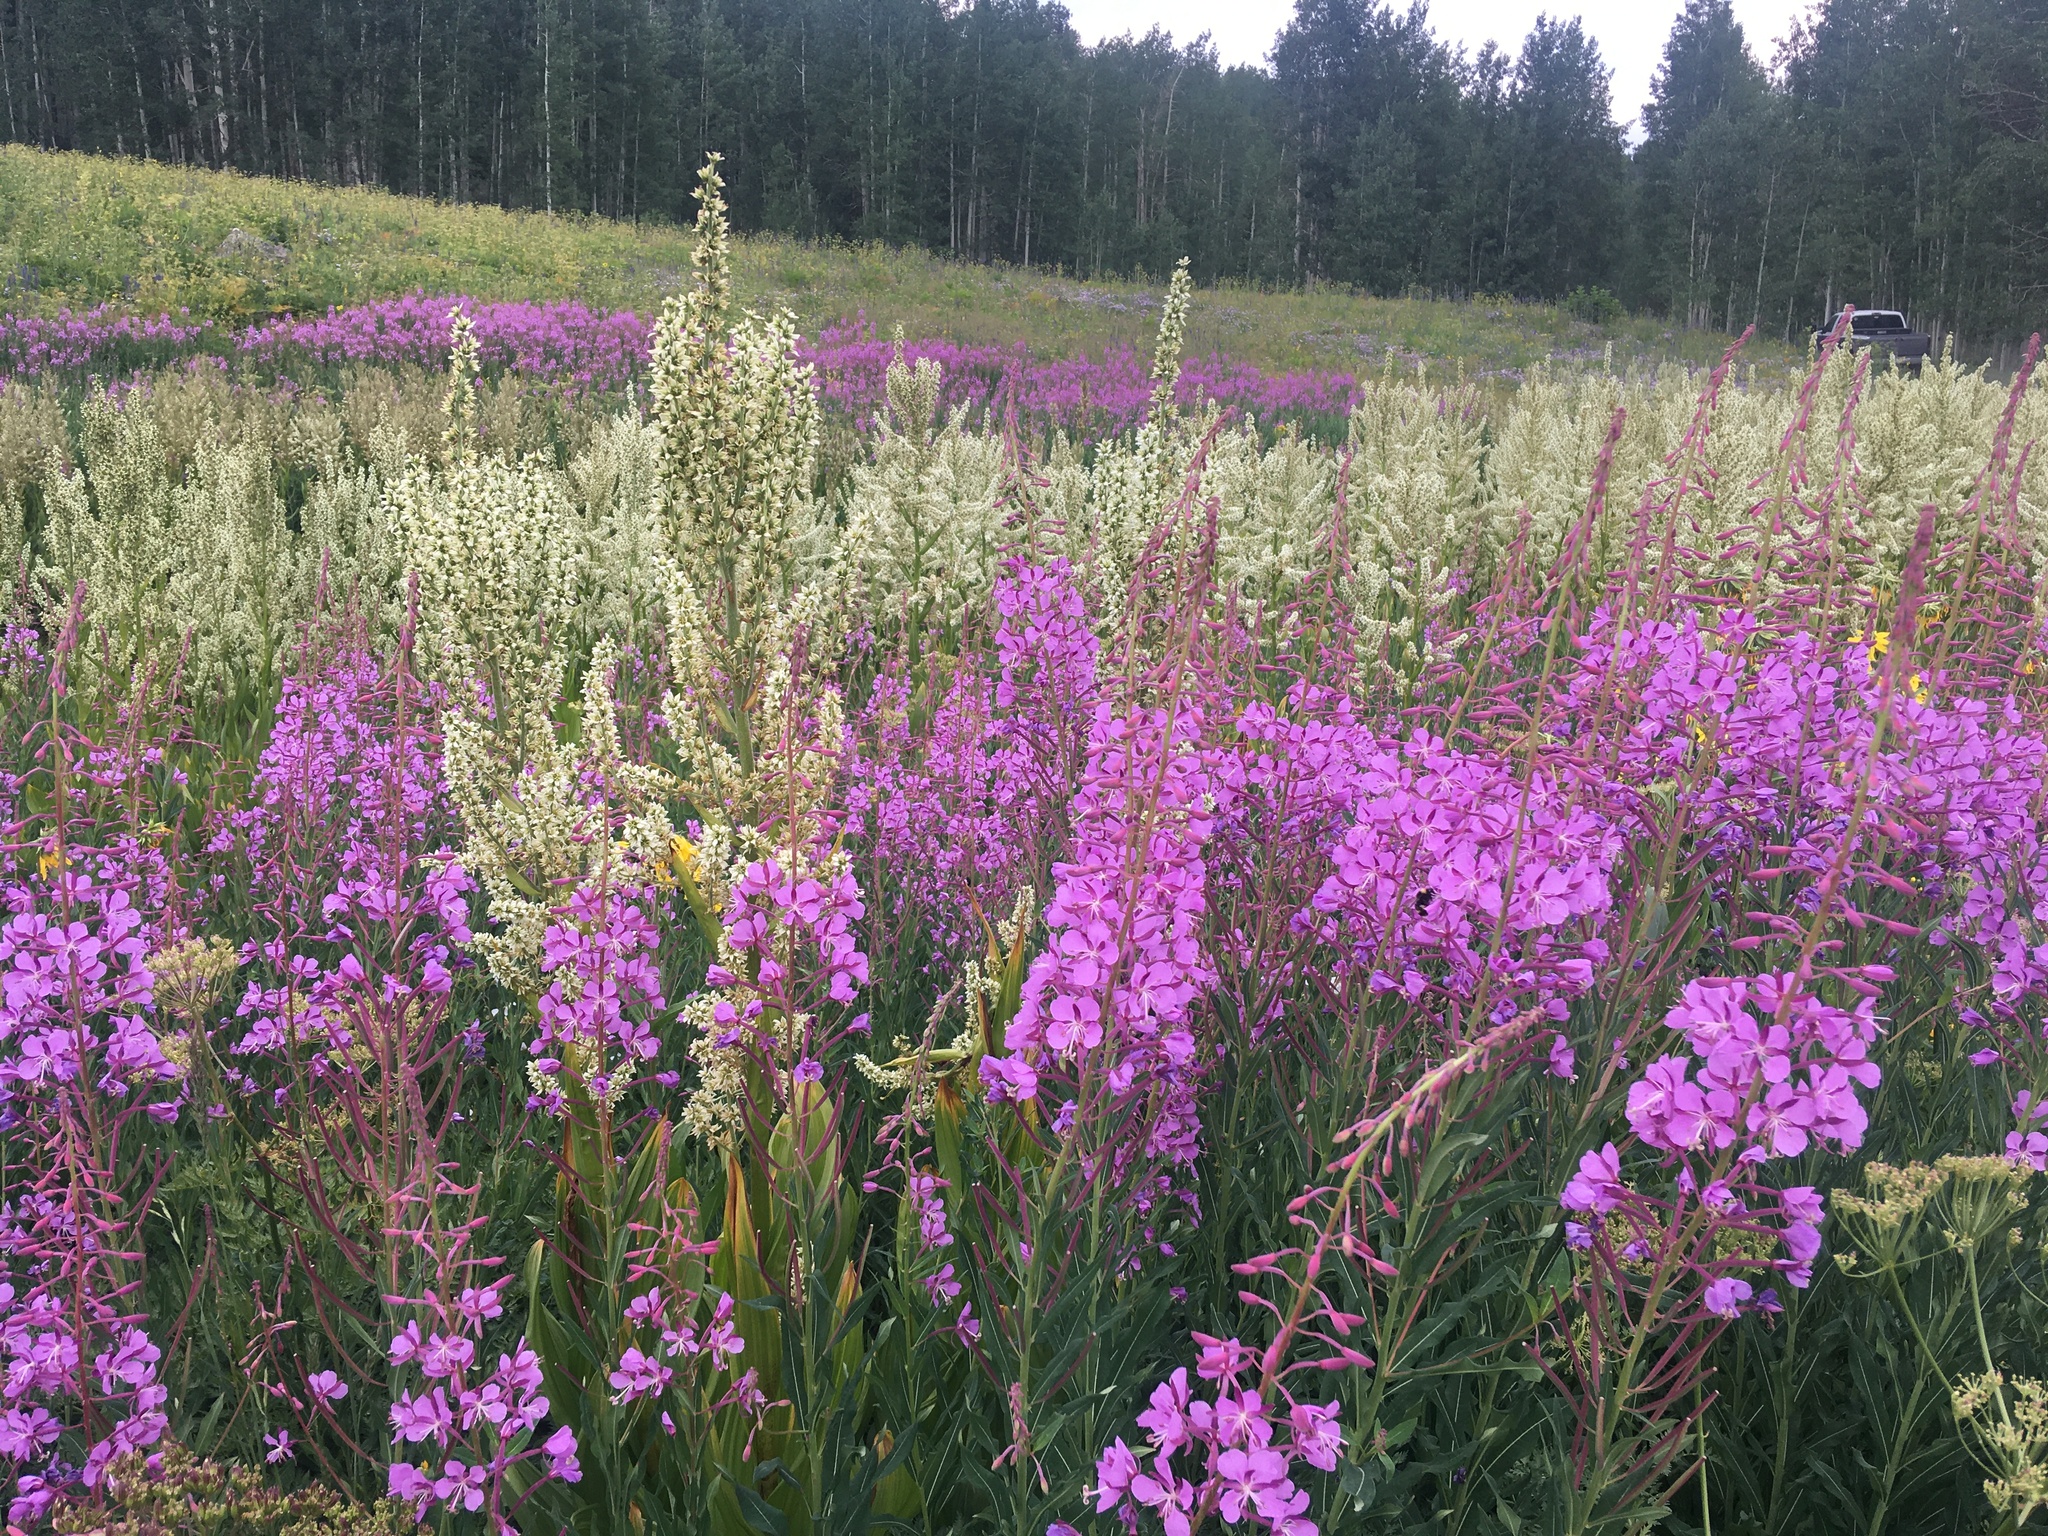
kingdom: Plantae
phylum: Tracheophyta
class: Magnoliopsida
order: Myrtales
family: Onagraceae
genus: Chamaenerion
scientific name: Chamaenerion angustifolium
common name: Fireweed
